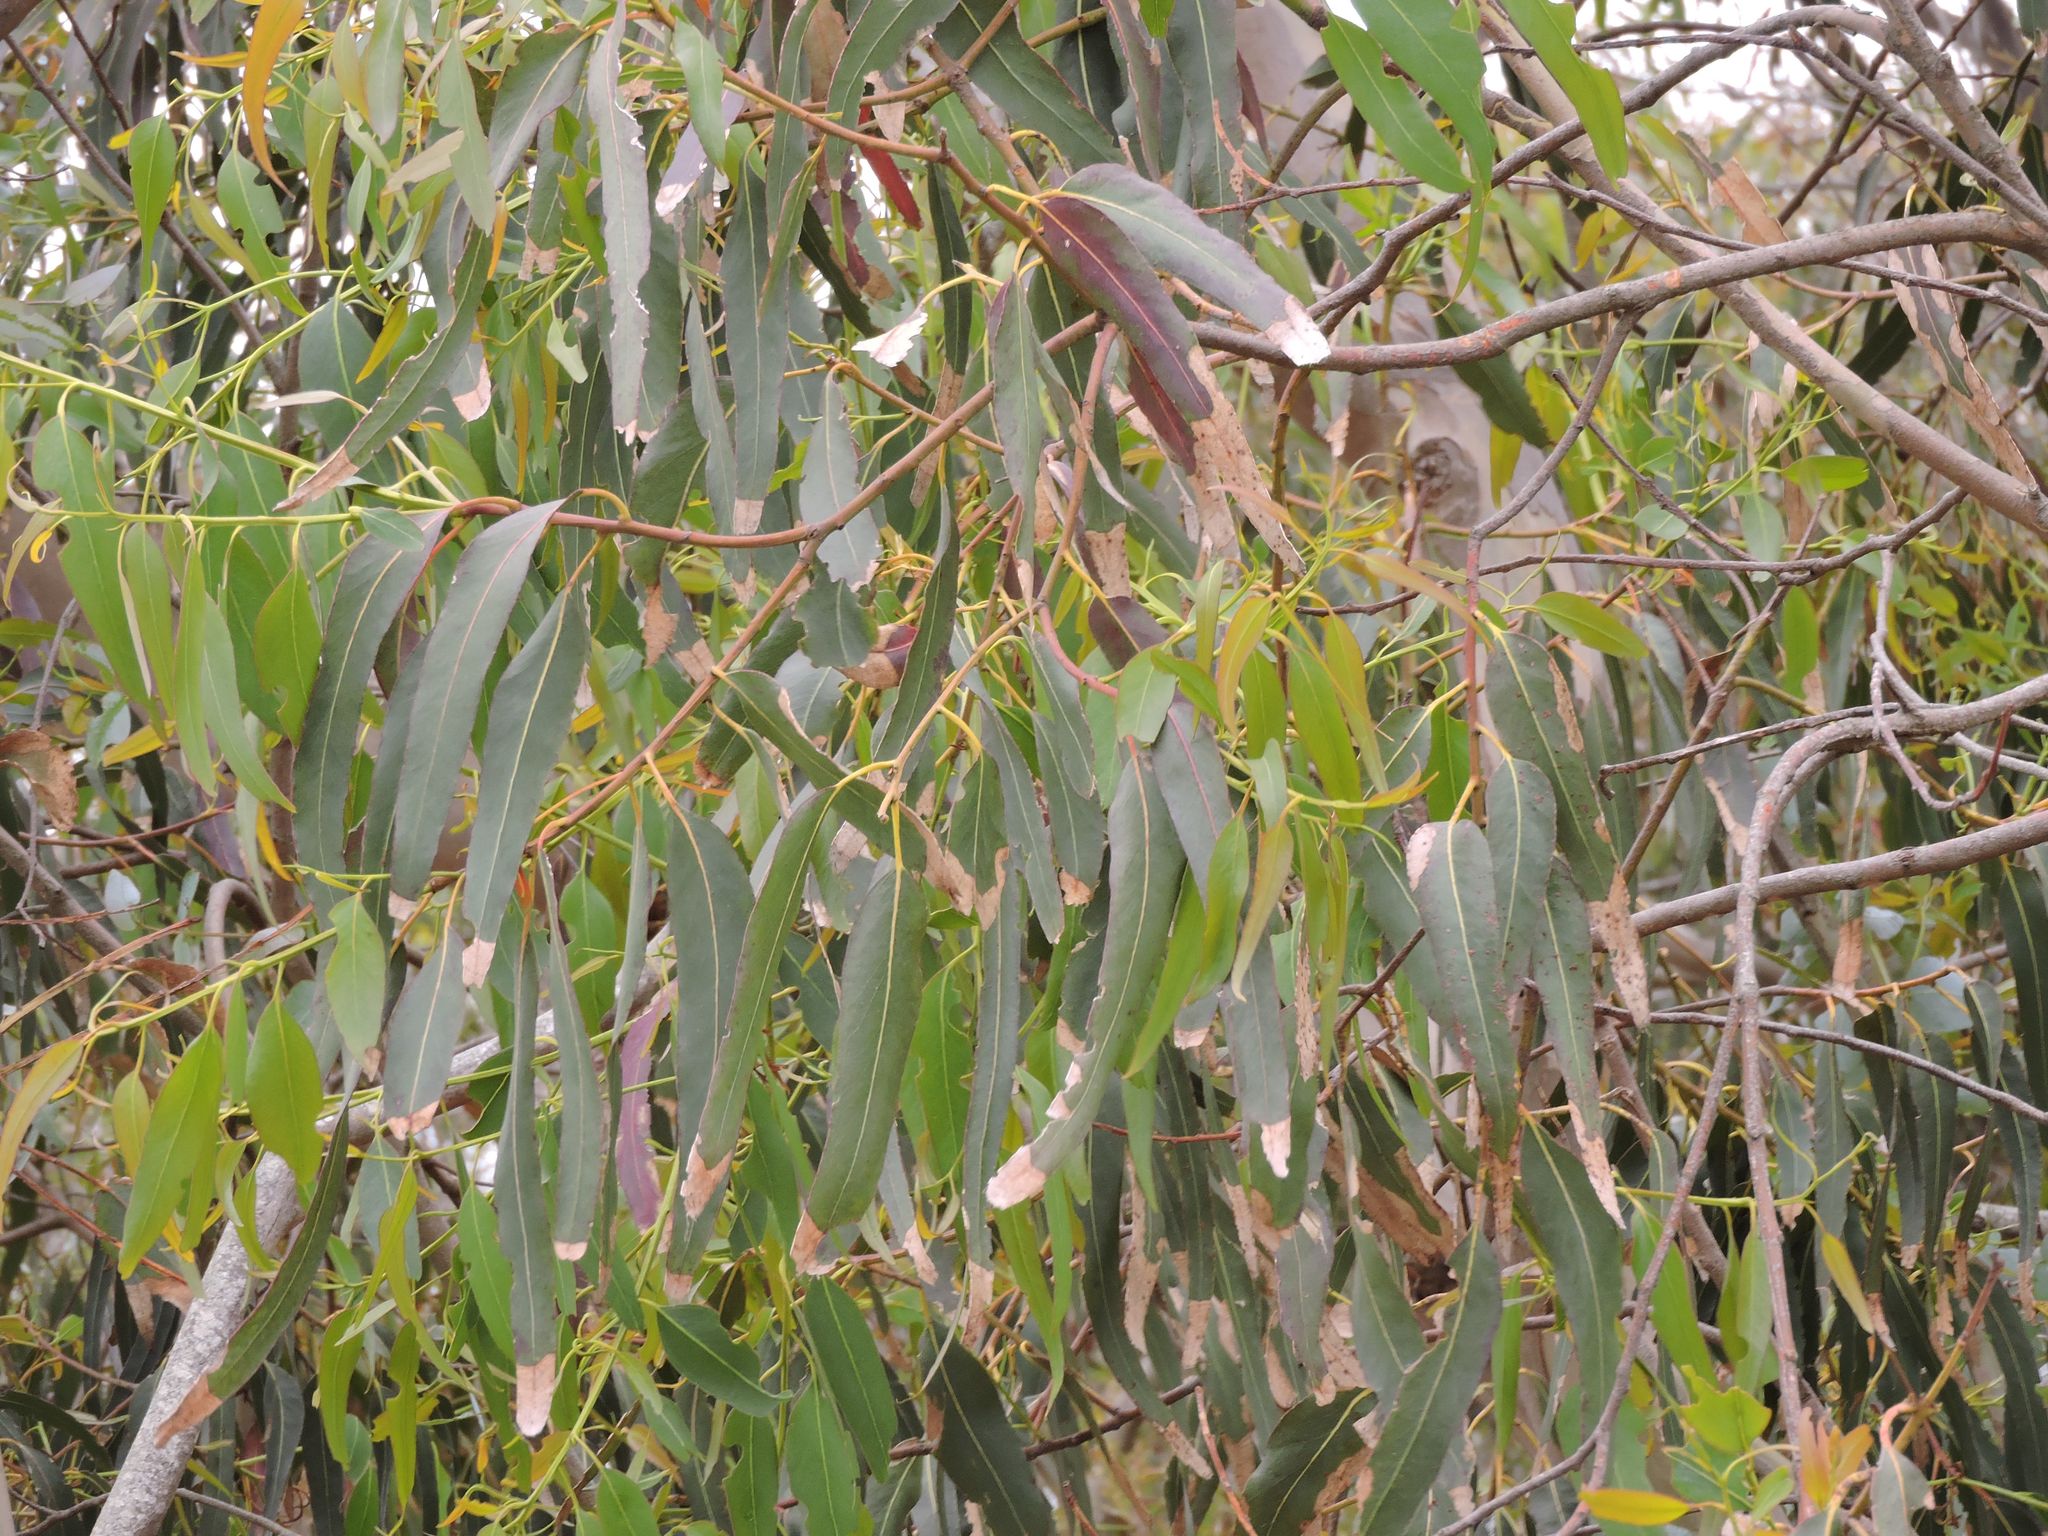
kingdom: Plantae
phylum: Tracheophyta
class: Magnoliopsida
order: Myrtales
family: Myrtaceae
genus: Eucalyptus
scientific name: Eucalyptus globulus
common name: Southern blue-gum
